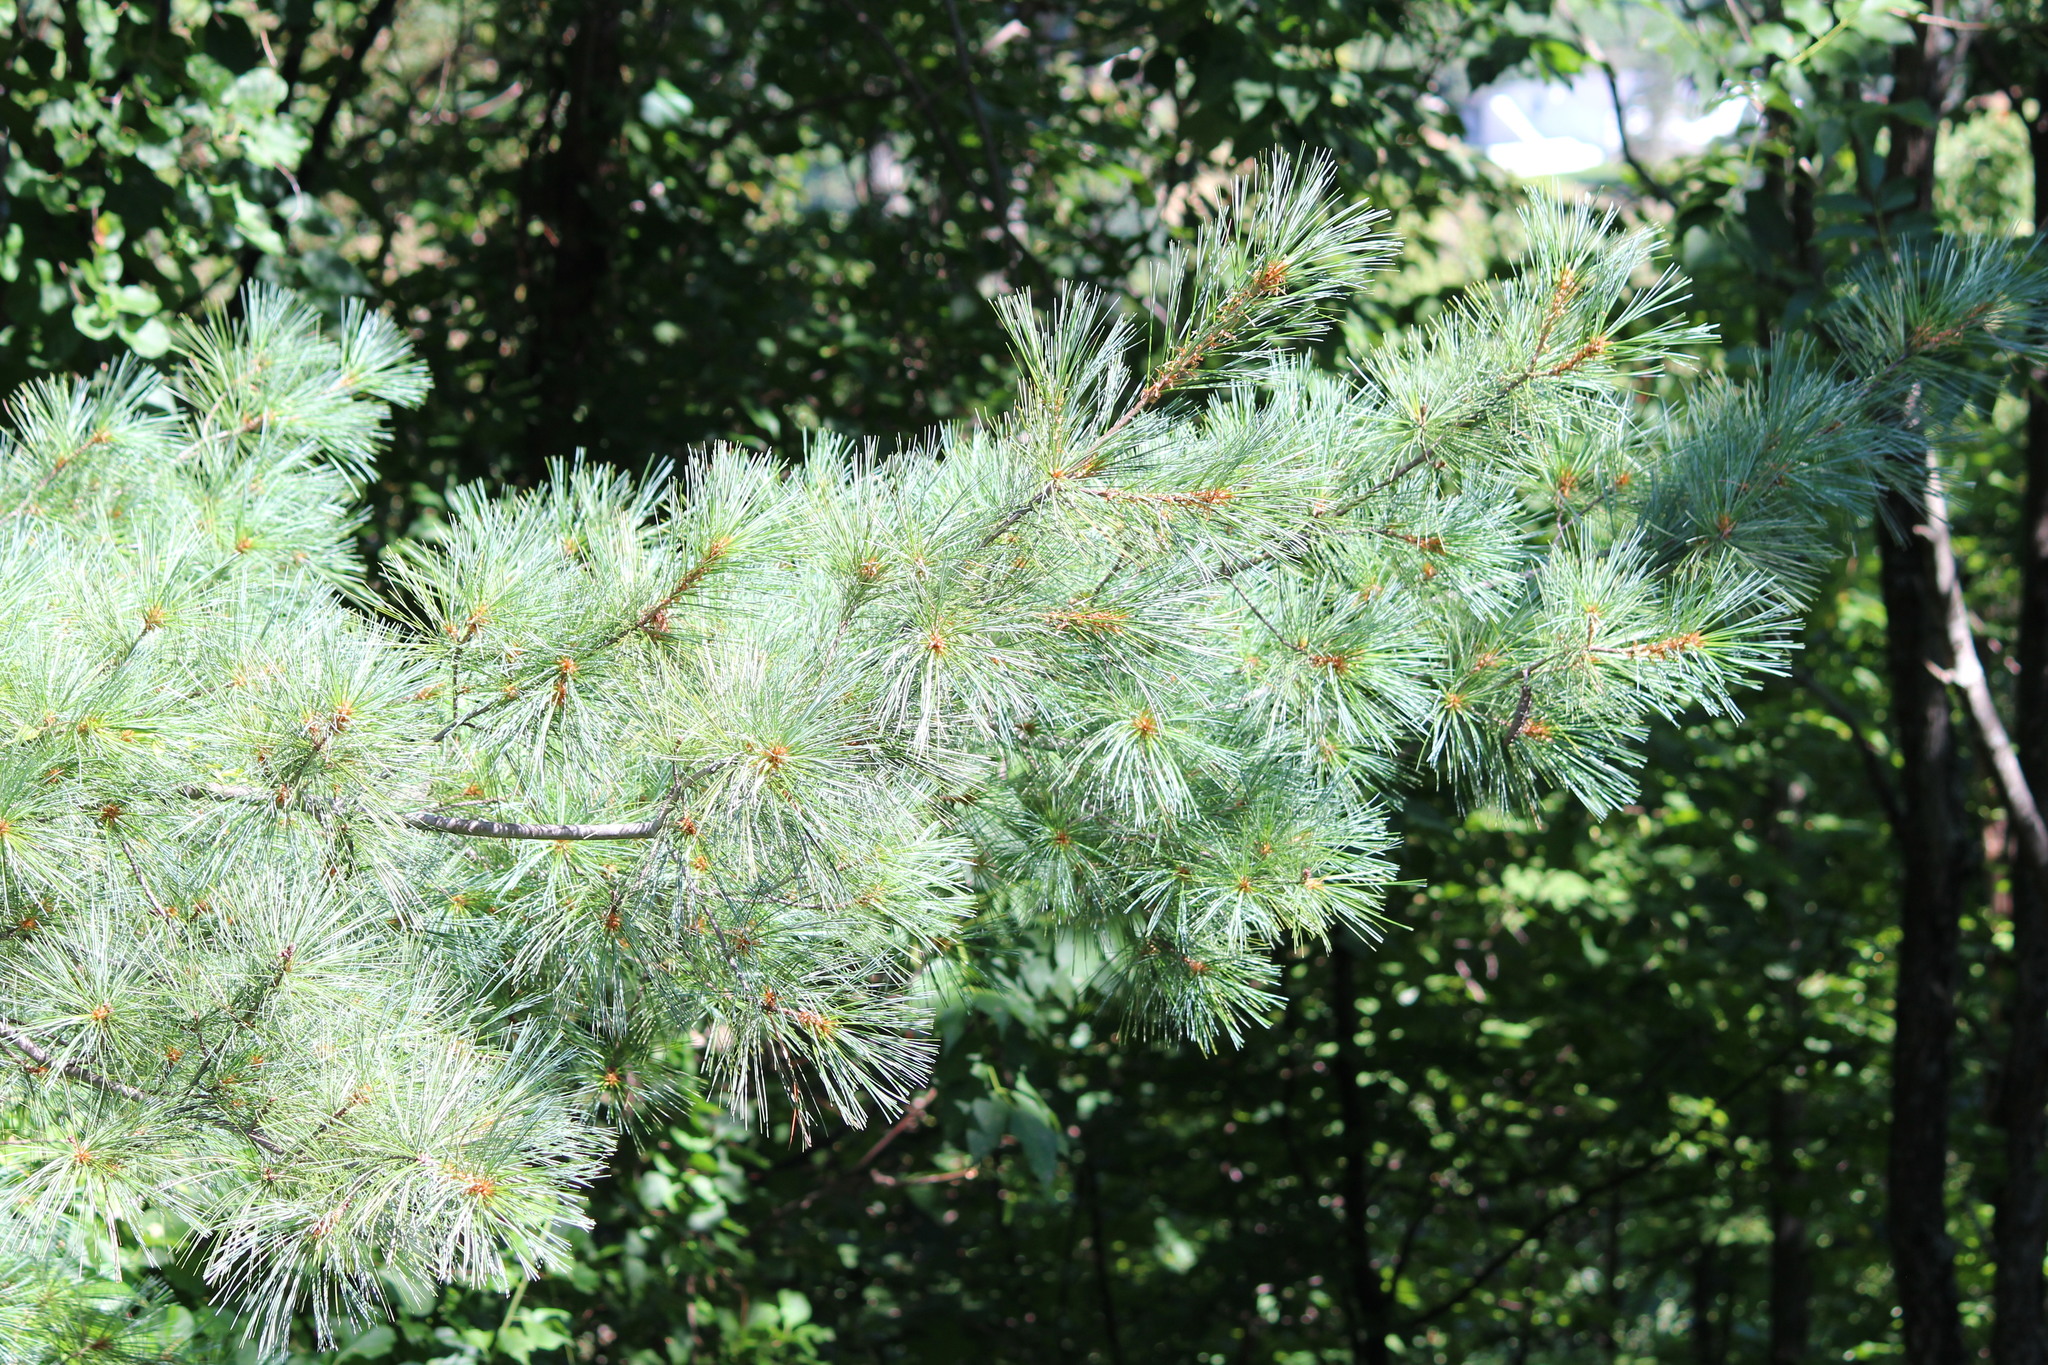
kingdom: Plantae
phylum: Tracheophyta
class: Pinopsida
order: Pinales
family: Pinaceae
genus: Pinus
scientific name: Pinus strobus
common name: Weymouth pine
